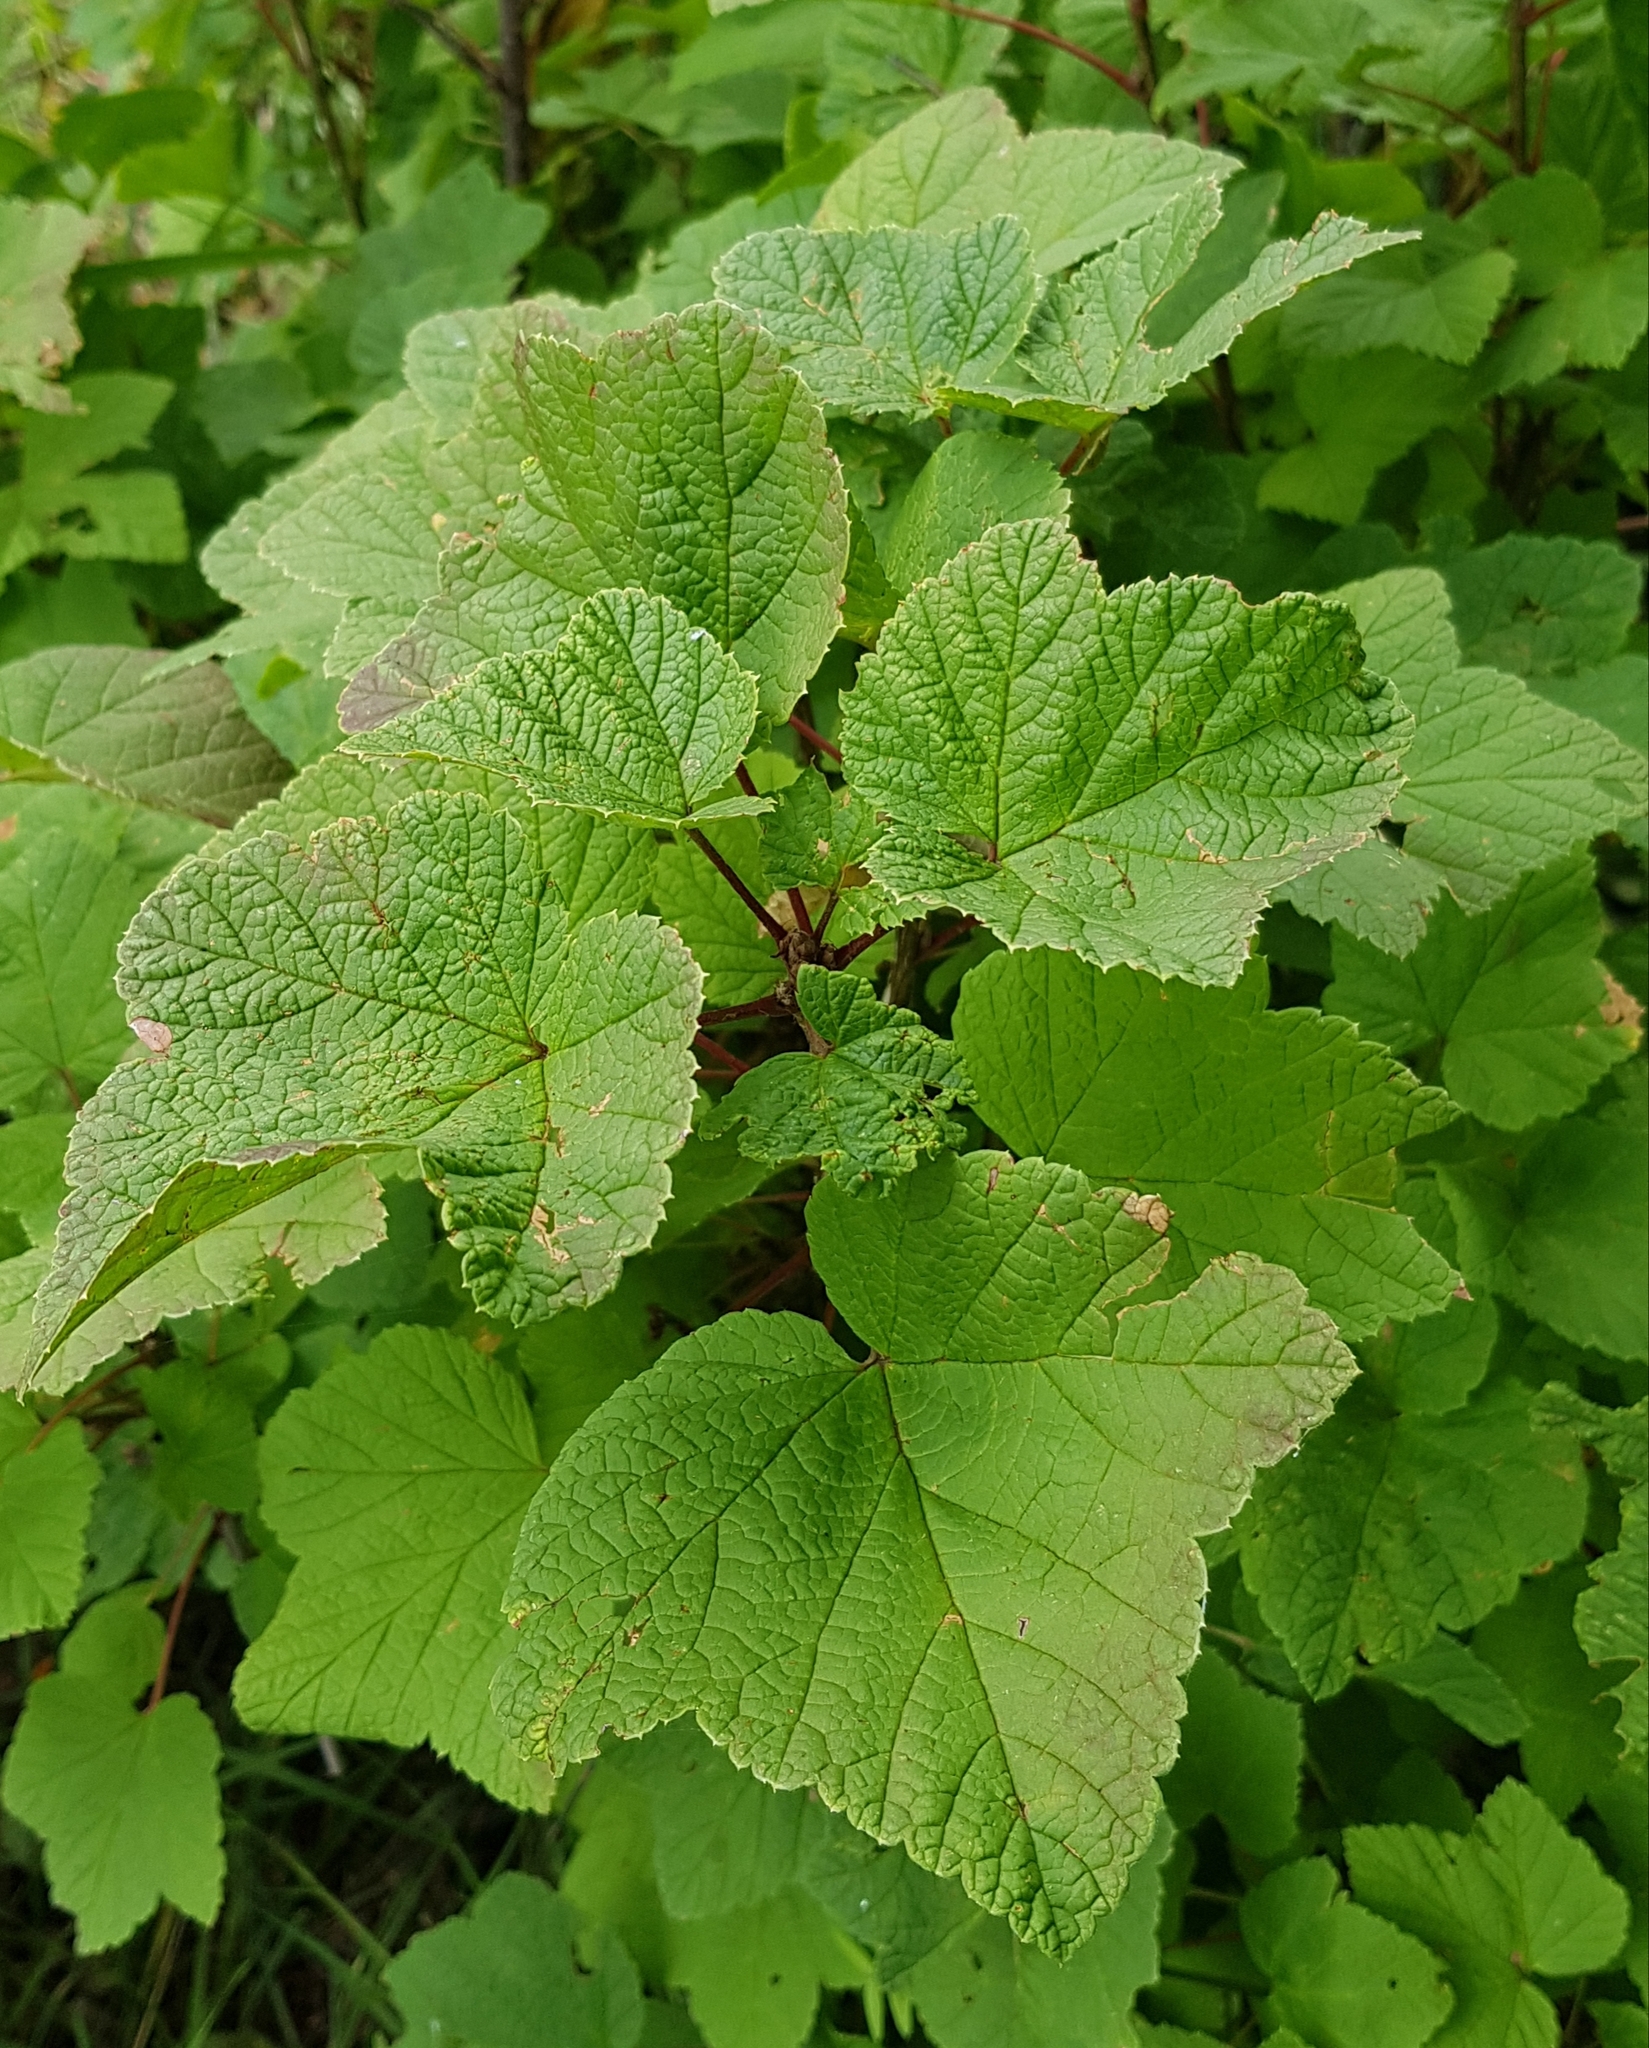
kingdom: Plantae
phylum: Tracheophyta
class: Magnoliopsida
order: Saxifragales
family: Grossulariaceae
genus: Ribes
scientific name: Ribes nigrum
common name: Black currant
